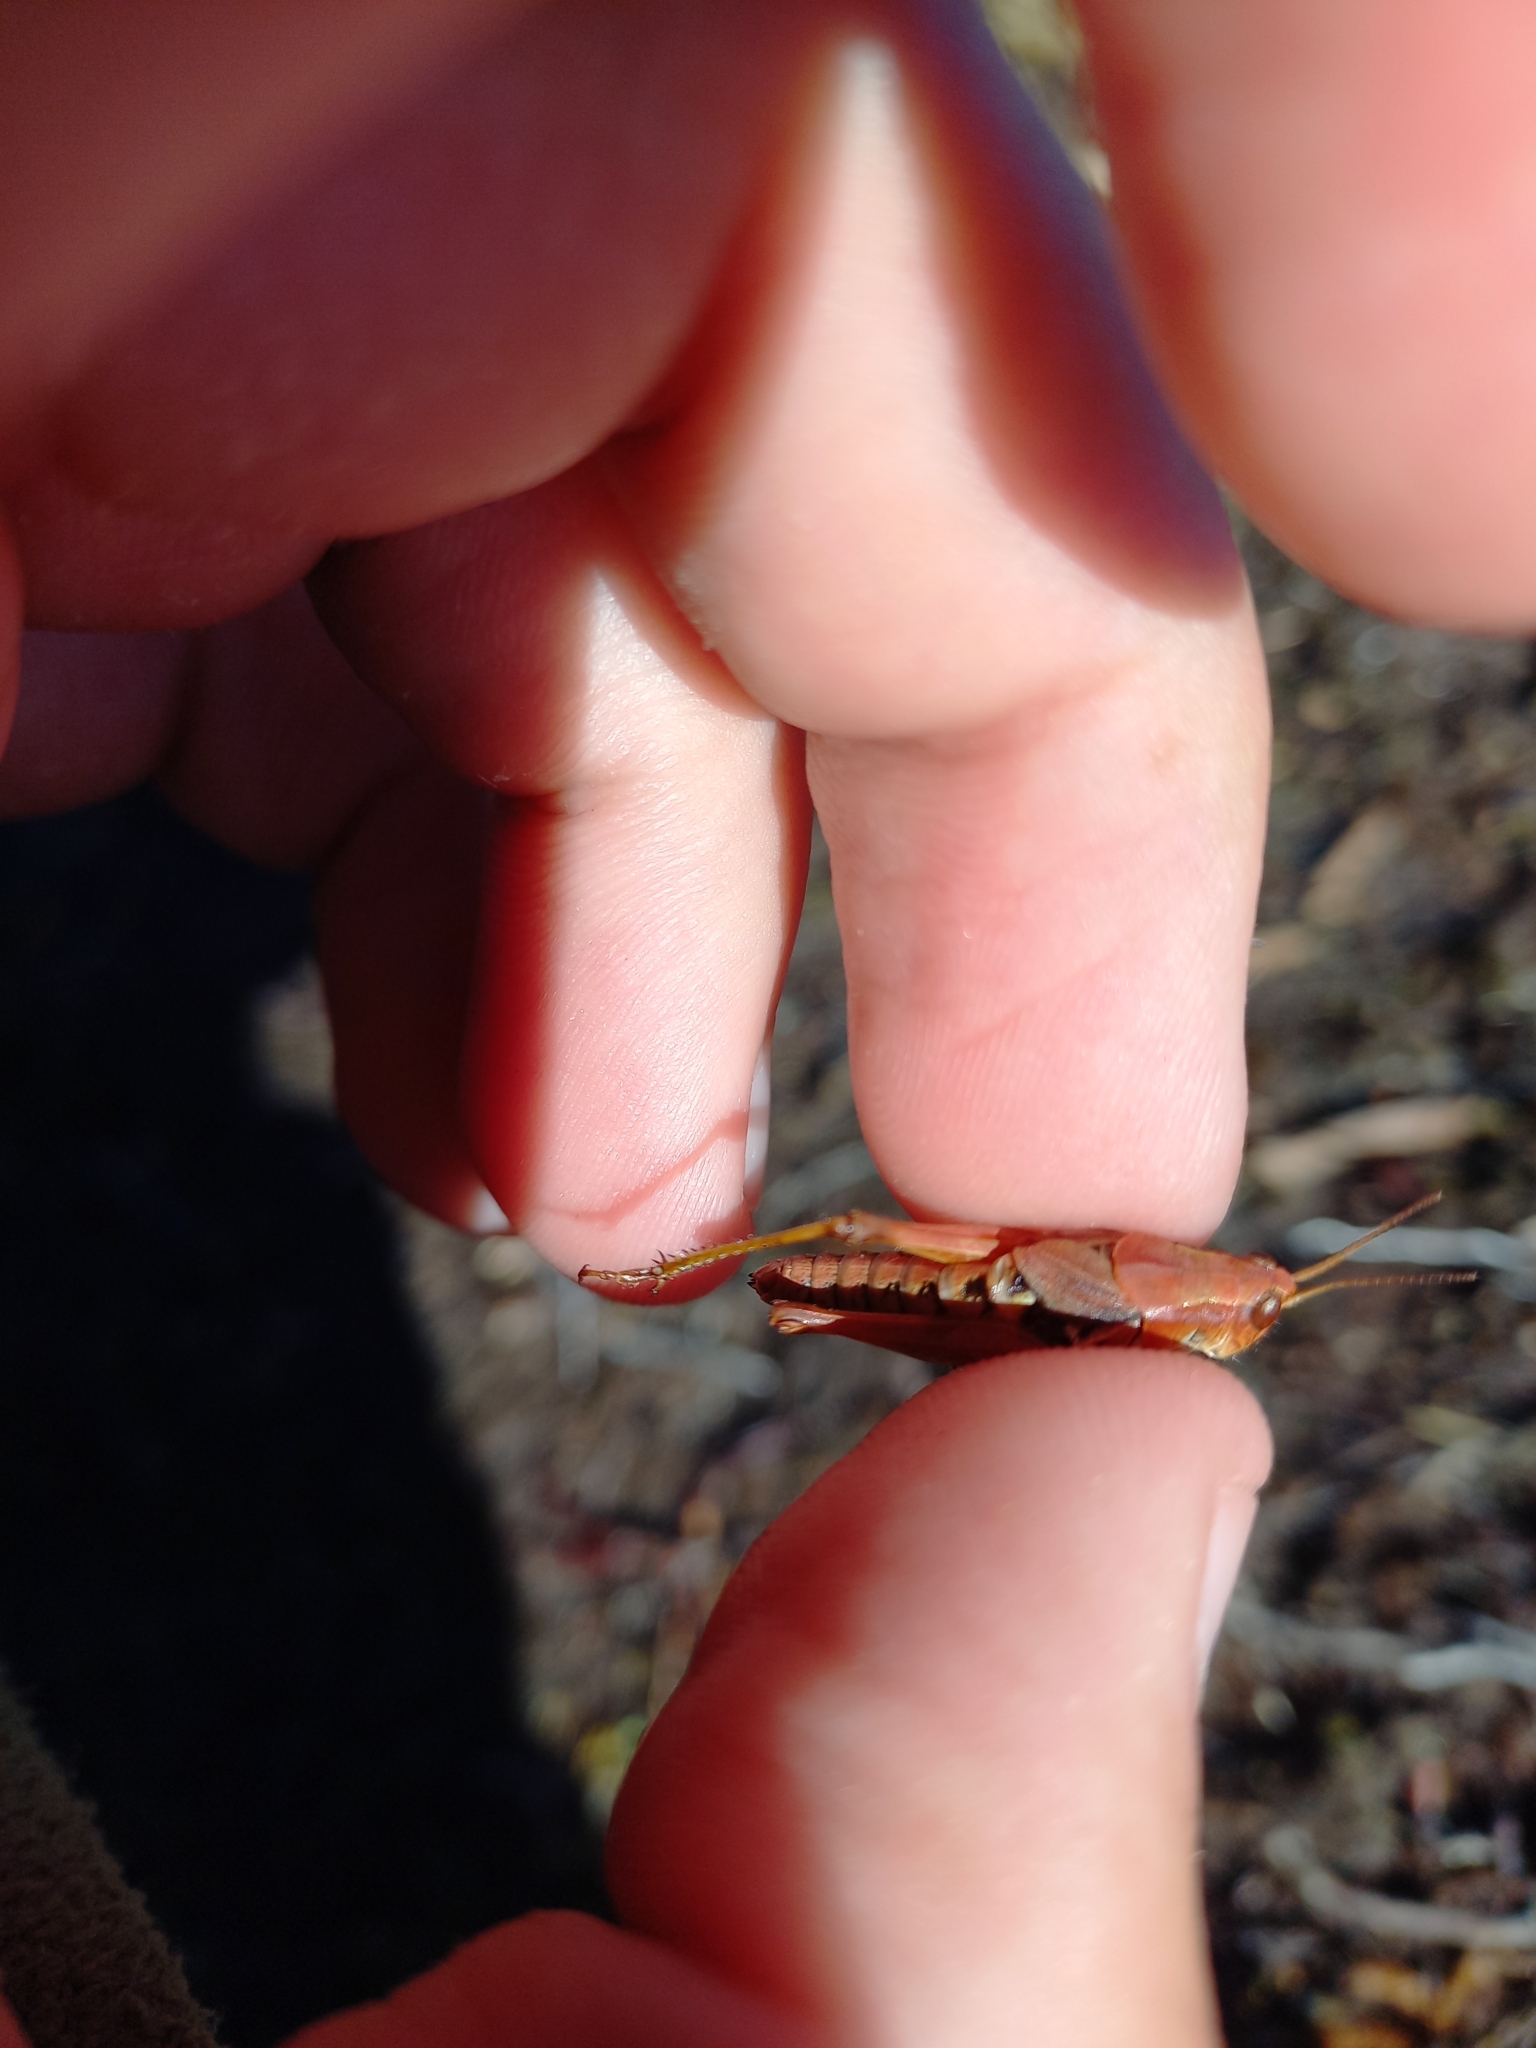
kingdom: Animalia
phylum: Arthropoda
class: Insecta
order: Orthoptera
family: Acrididae
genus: Phaulacridium
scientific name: Phaulacridium marginale
